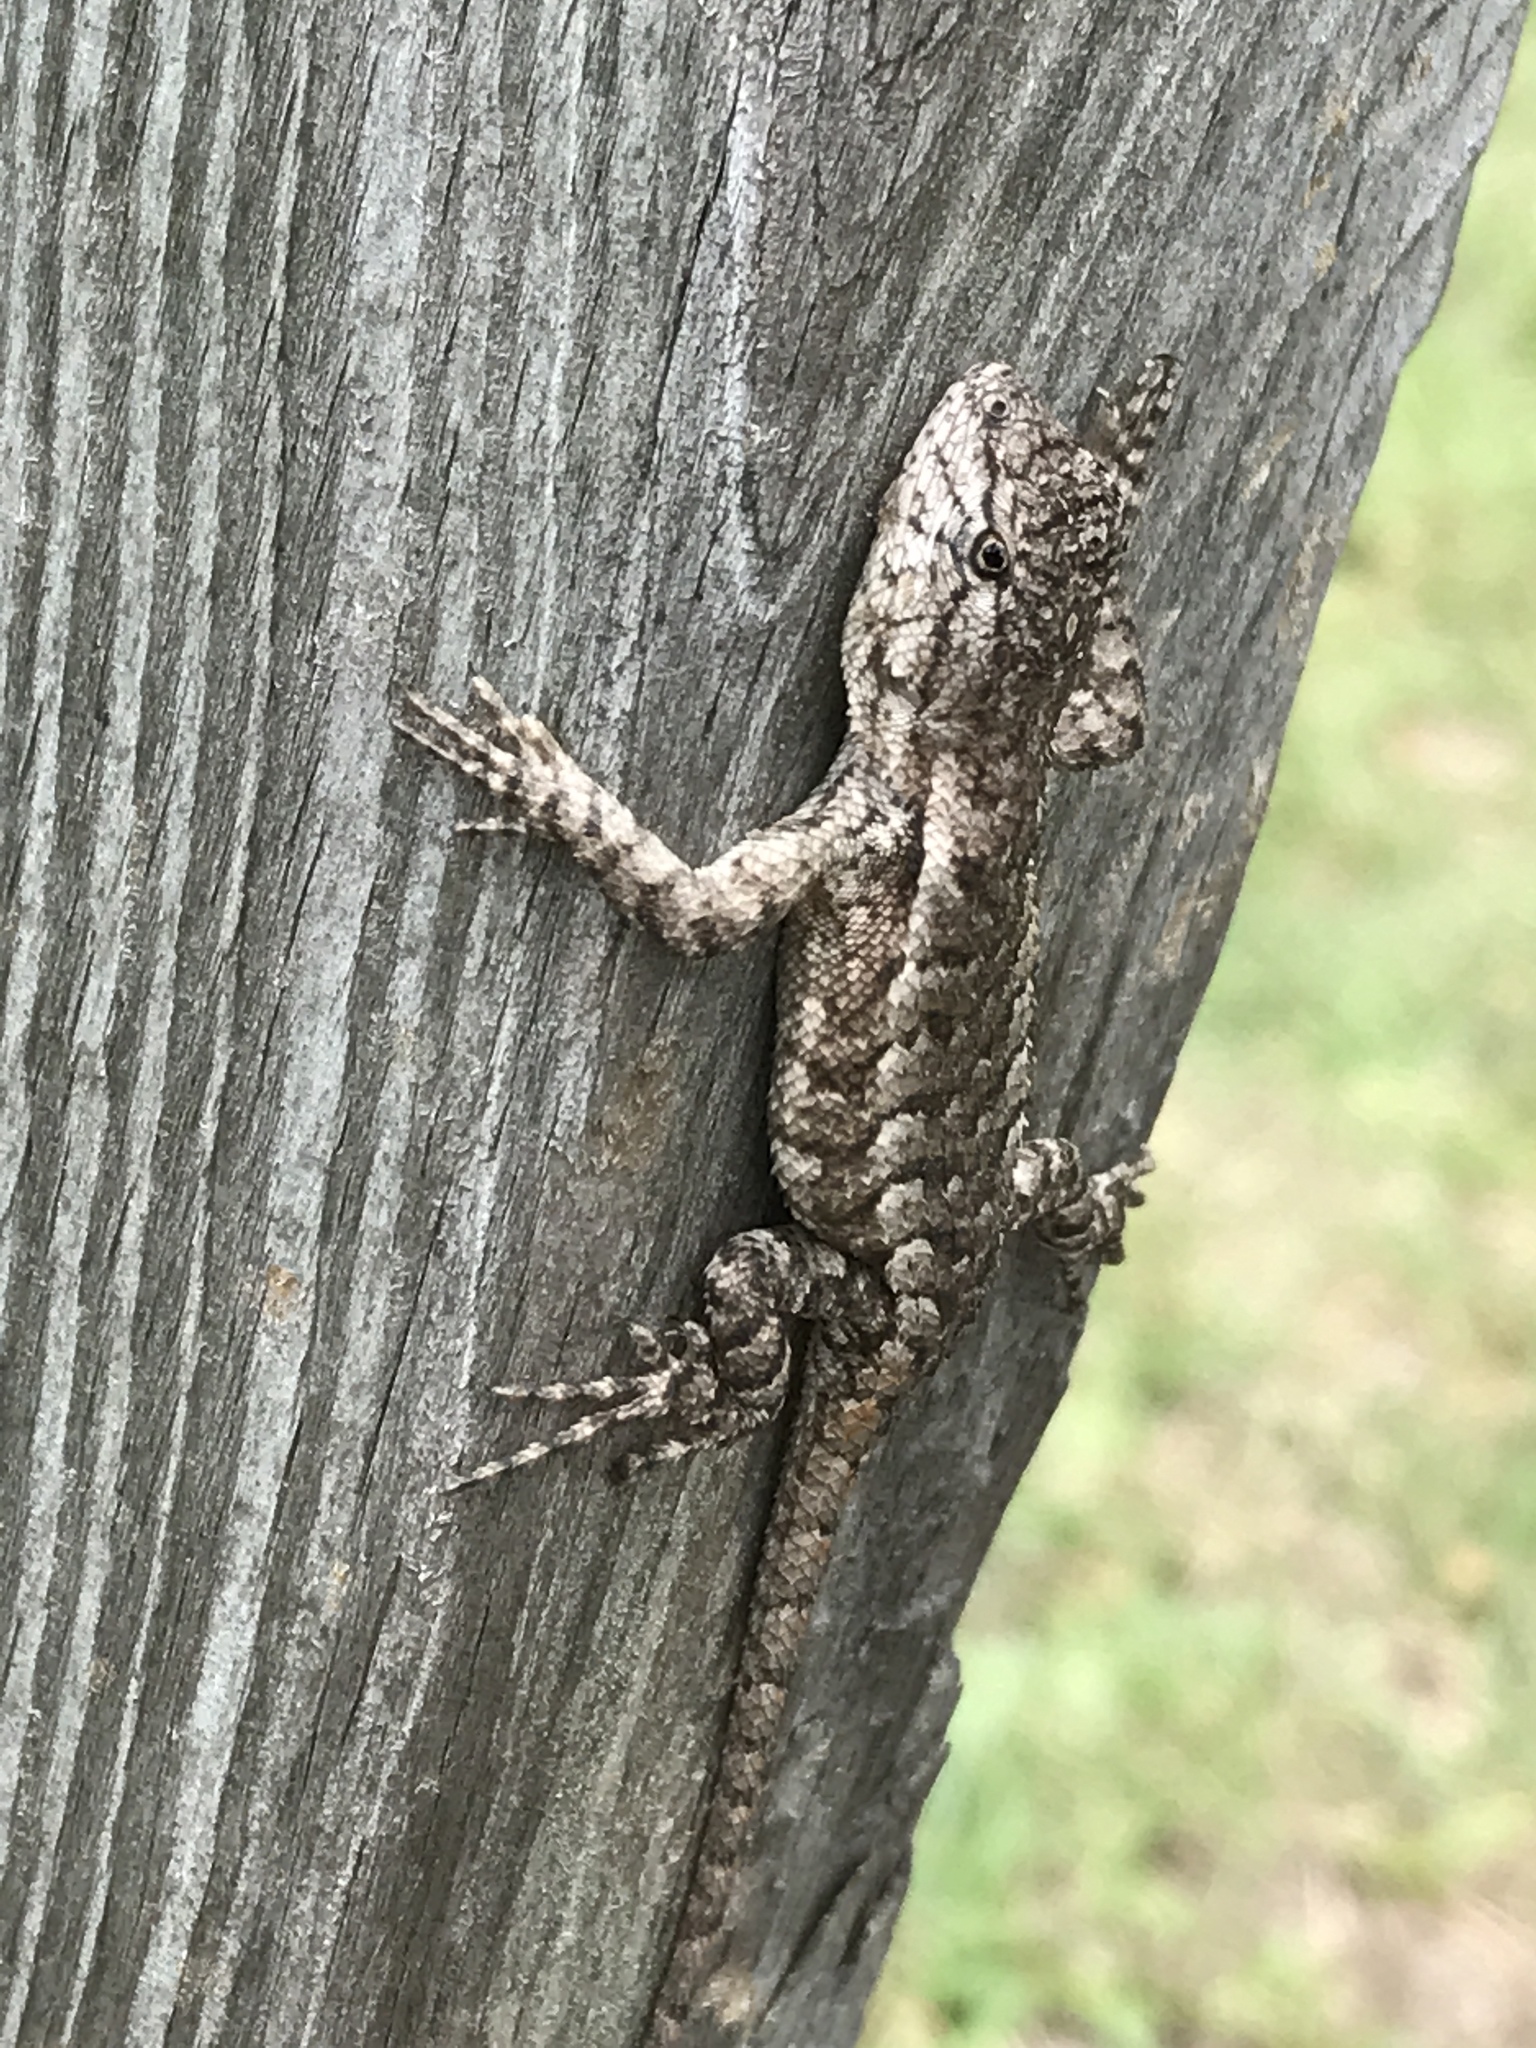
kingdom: Animalia
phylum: Chordata
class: Squamata
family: Phrynosomatidae
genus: Sceloporus
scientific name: Sceloporus consobrinus
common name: Southern prairie lizard
